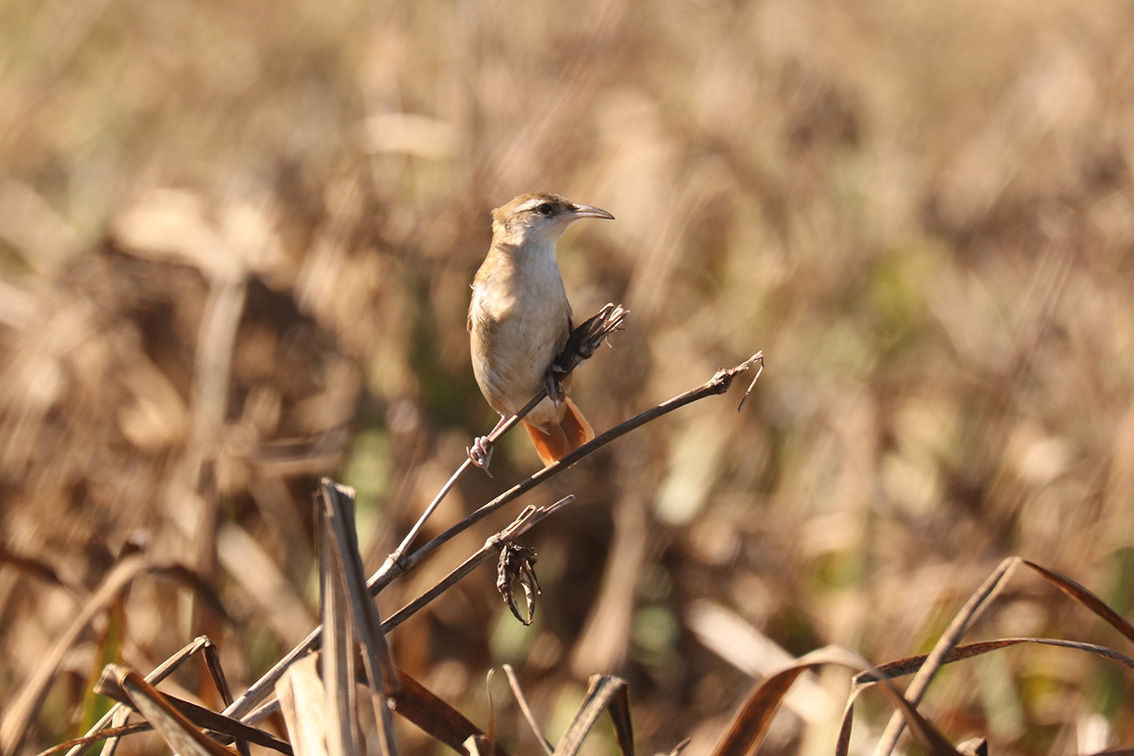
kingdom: Animalia
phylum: Chordata
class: Aves
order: Passeriformes
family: Furnariidae
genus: Limnornis
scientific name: Limnornis curvirostris
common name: Curve-billed reedhaunter
